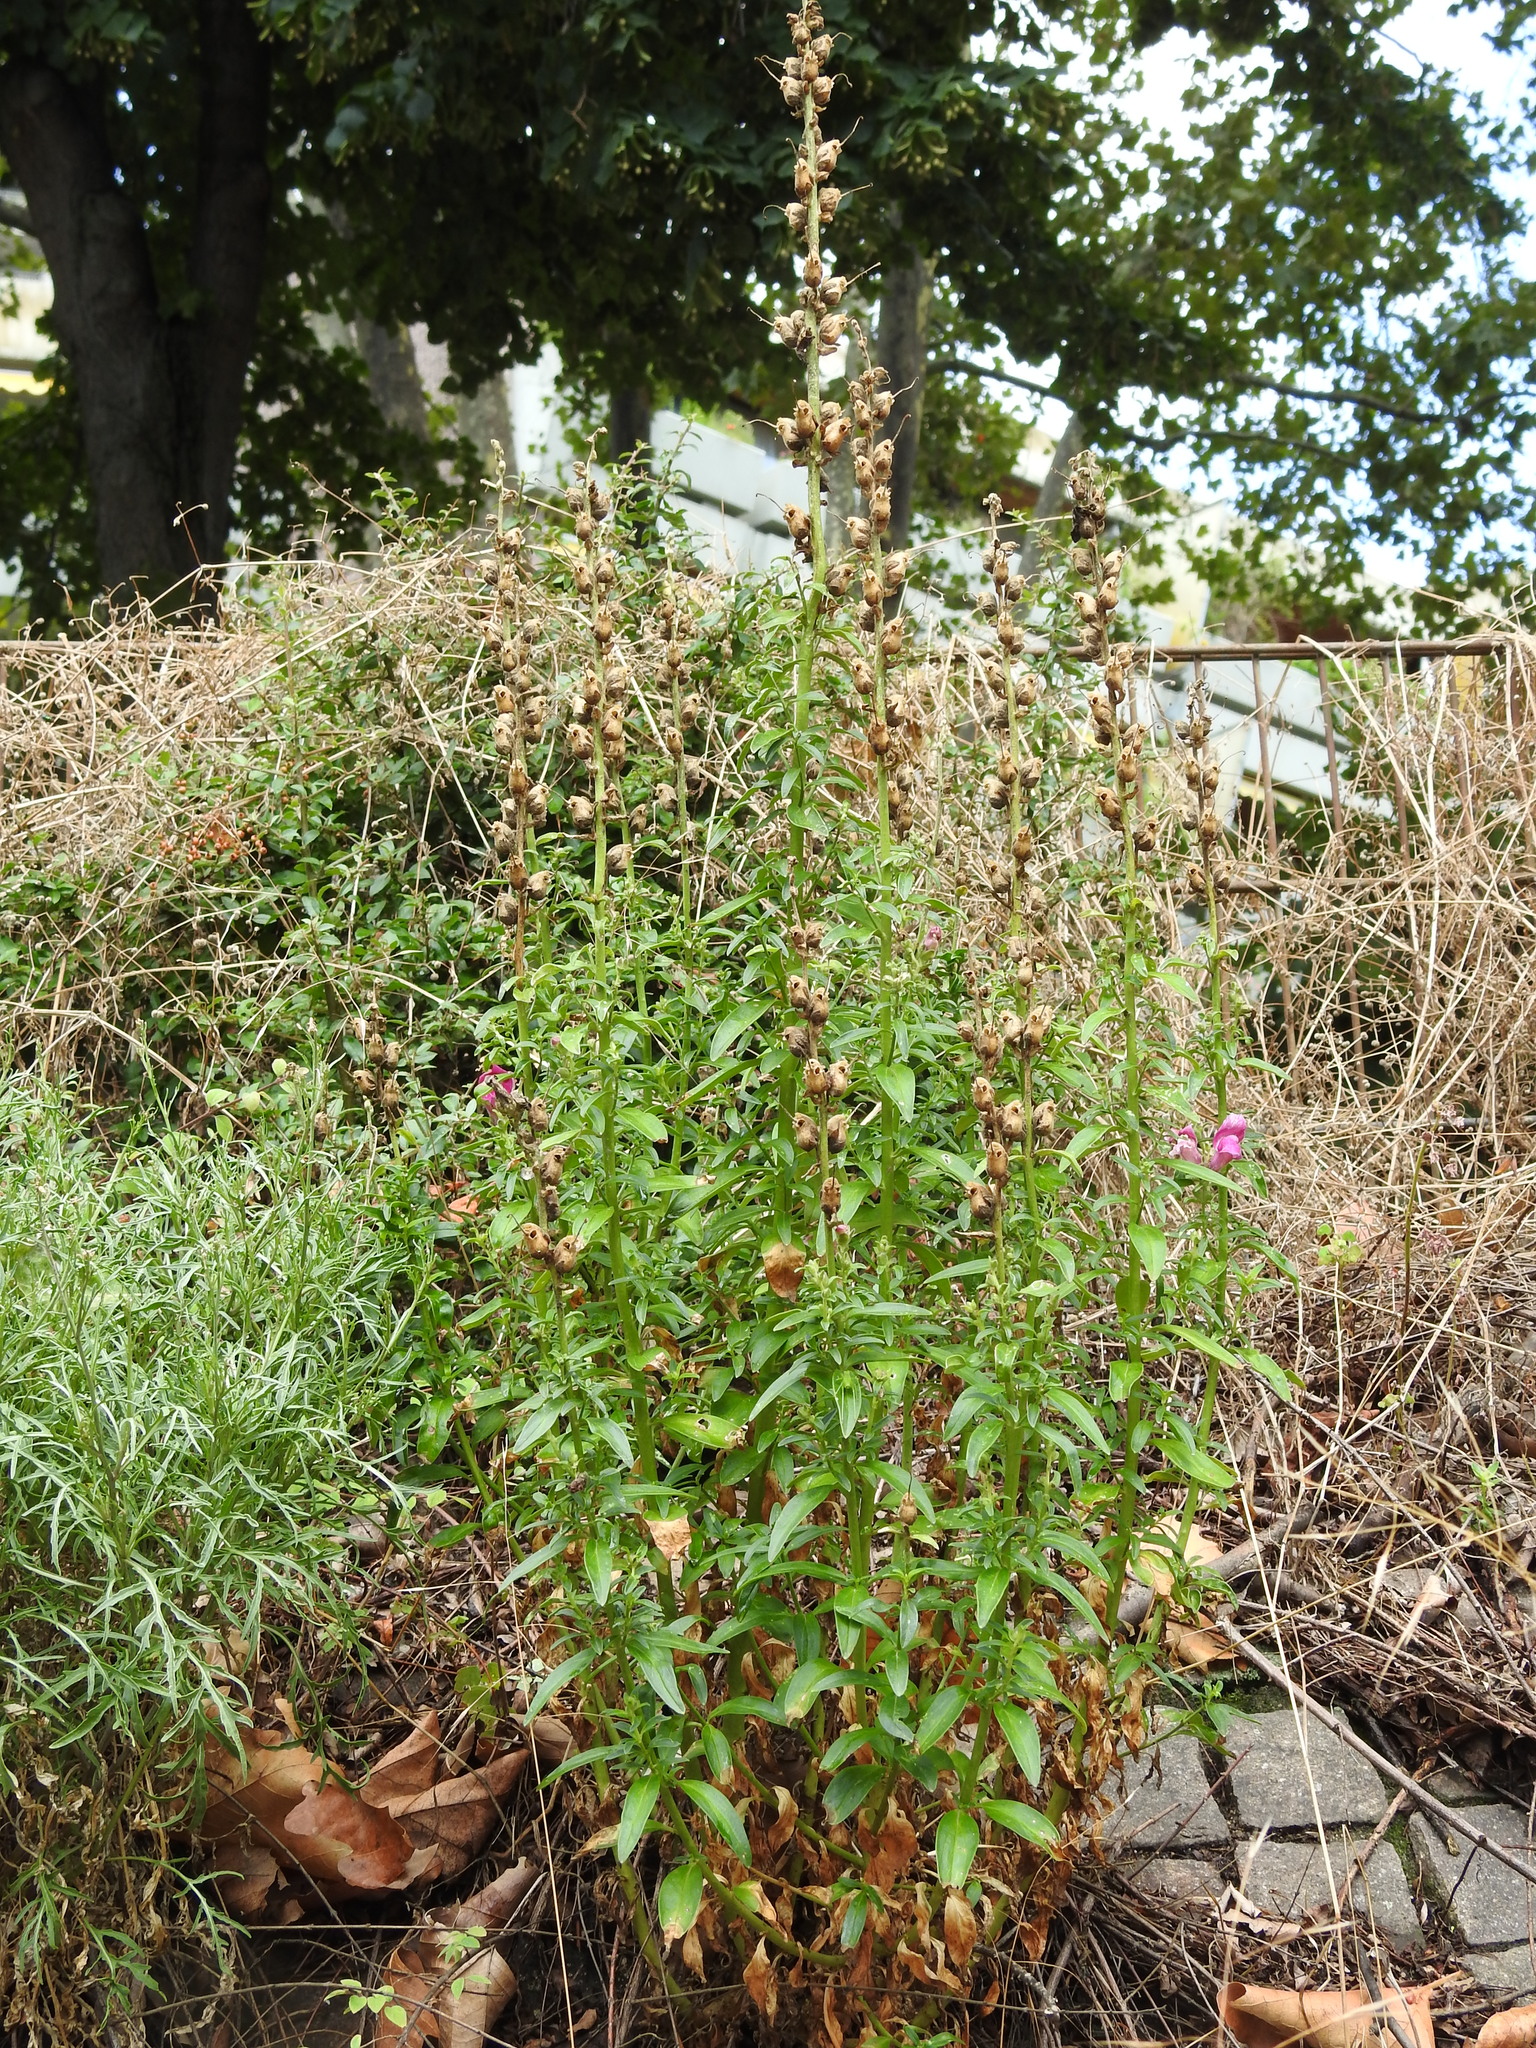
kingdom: Plantae
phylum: Tracheophyta
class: Magnoliopsida
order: Lamiales
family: Plantaginaceae
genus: Antirrhinum
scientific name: Antirrhinum majus
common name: Snapdragon
